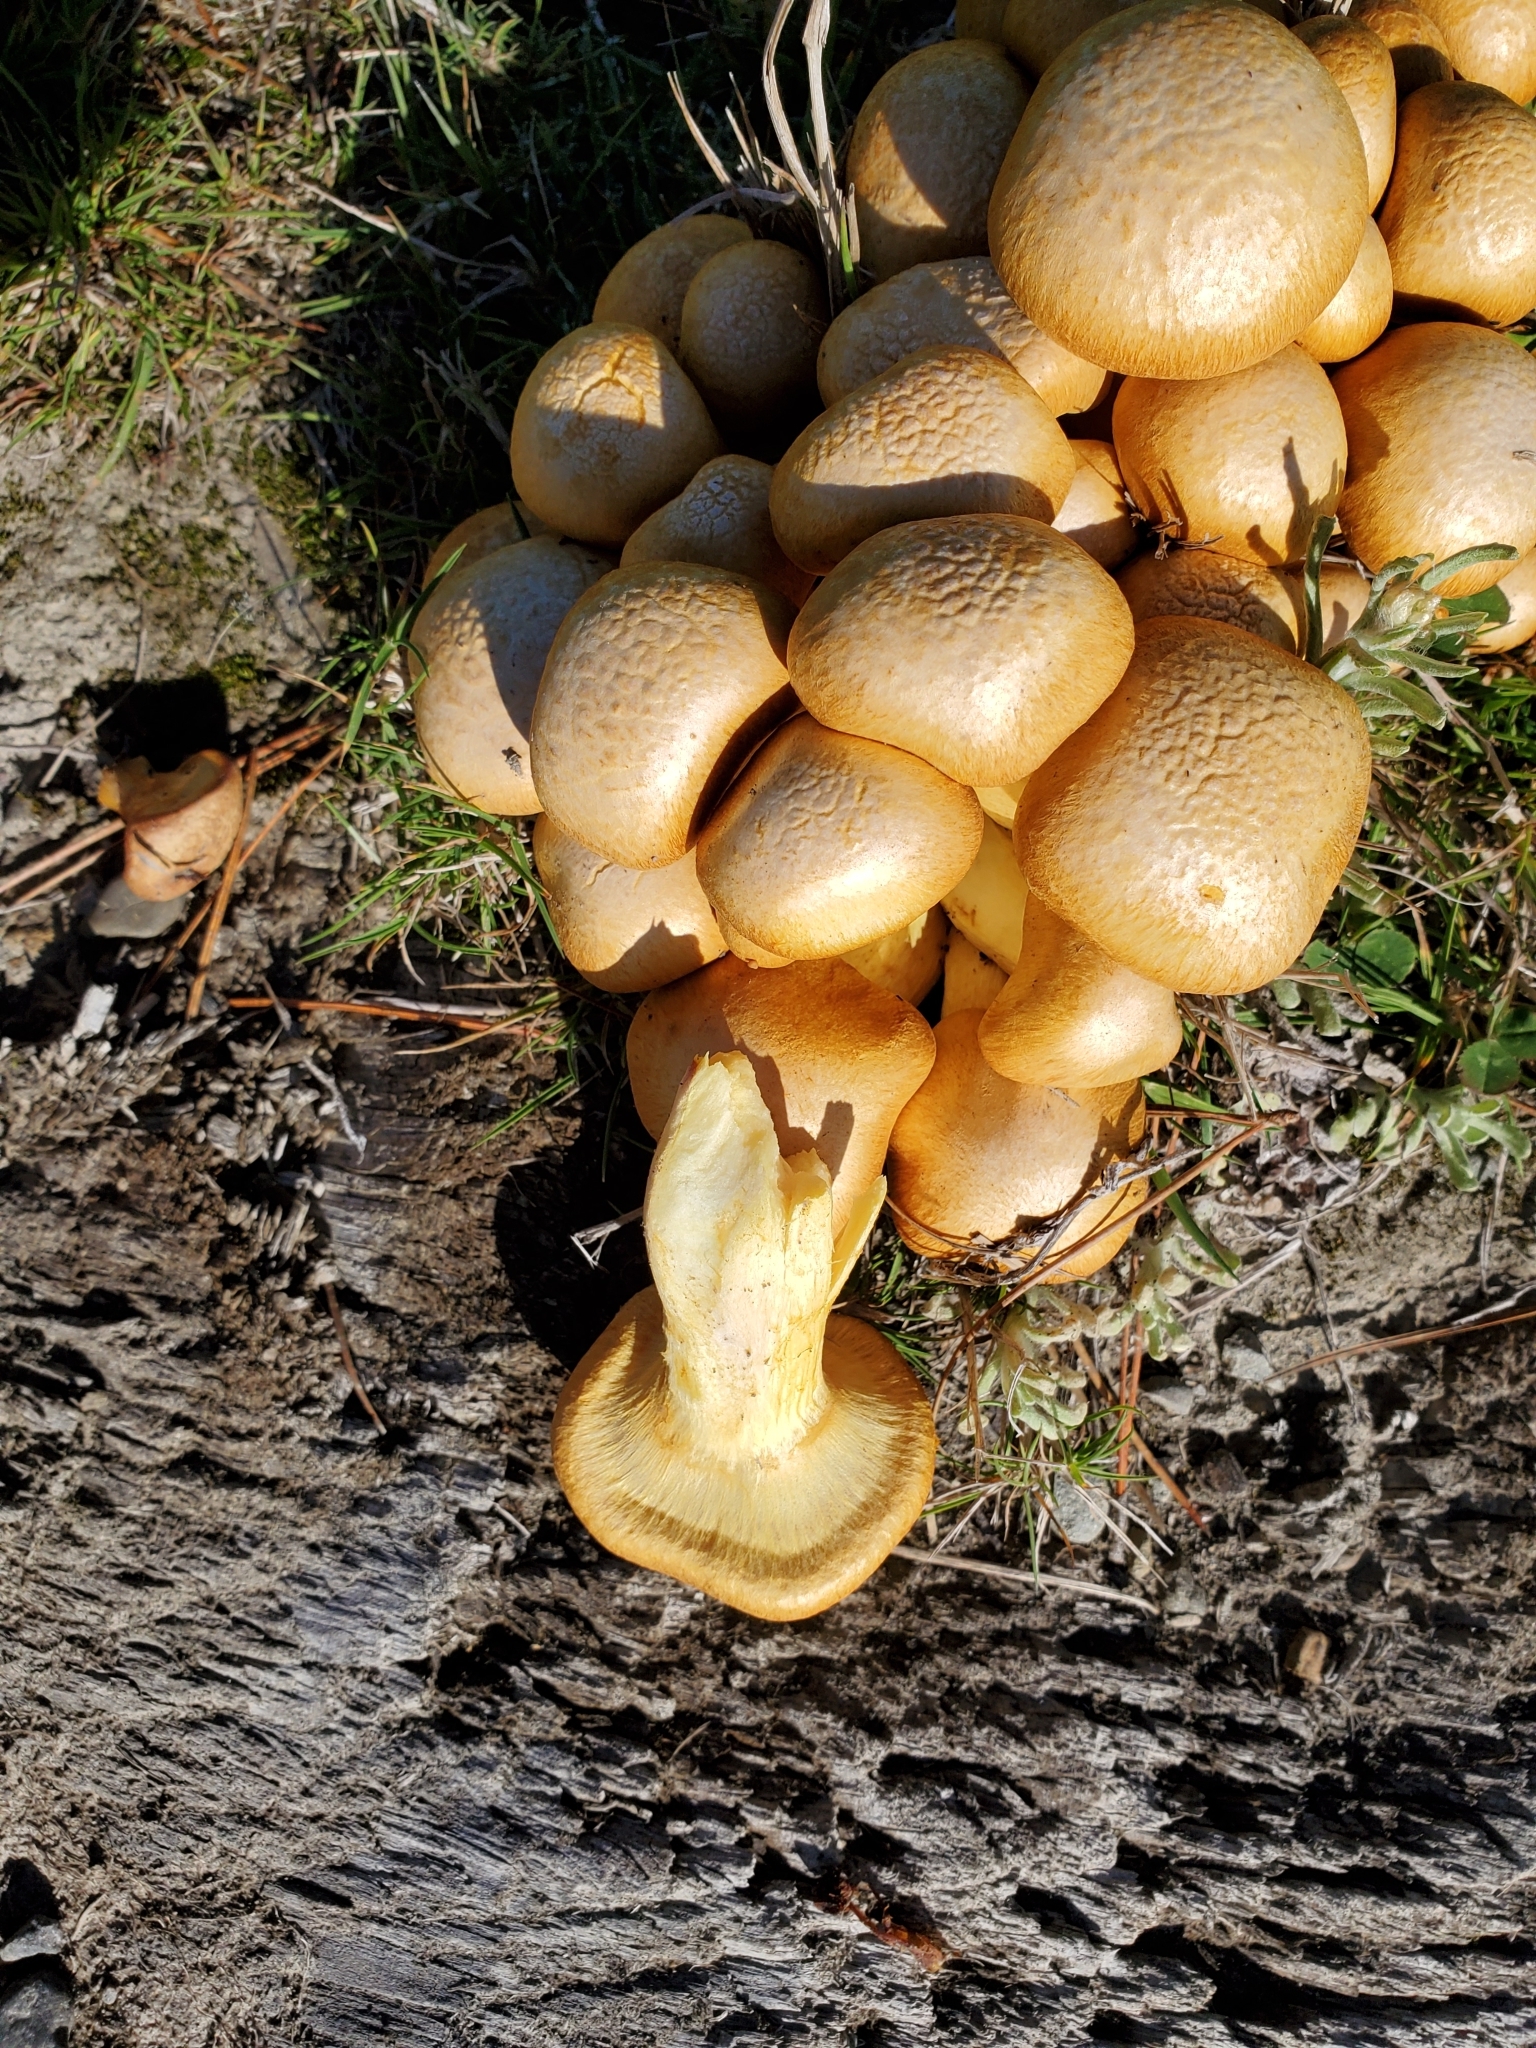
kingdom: Fungi
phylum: Basidiomycota
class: Agaricomycetes
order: Agaricales
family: Hymenogastraceae
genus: Gymnopilus
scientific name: Gymnopilus junonius
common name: Spectacular rustgill
